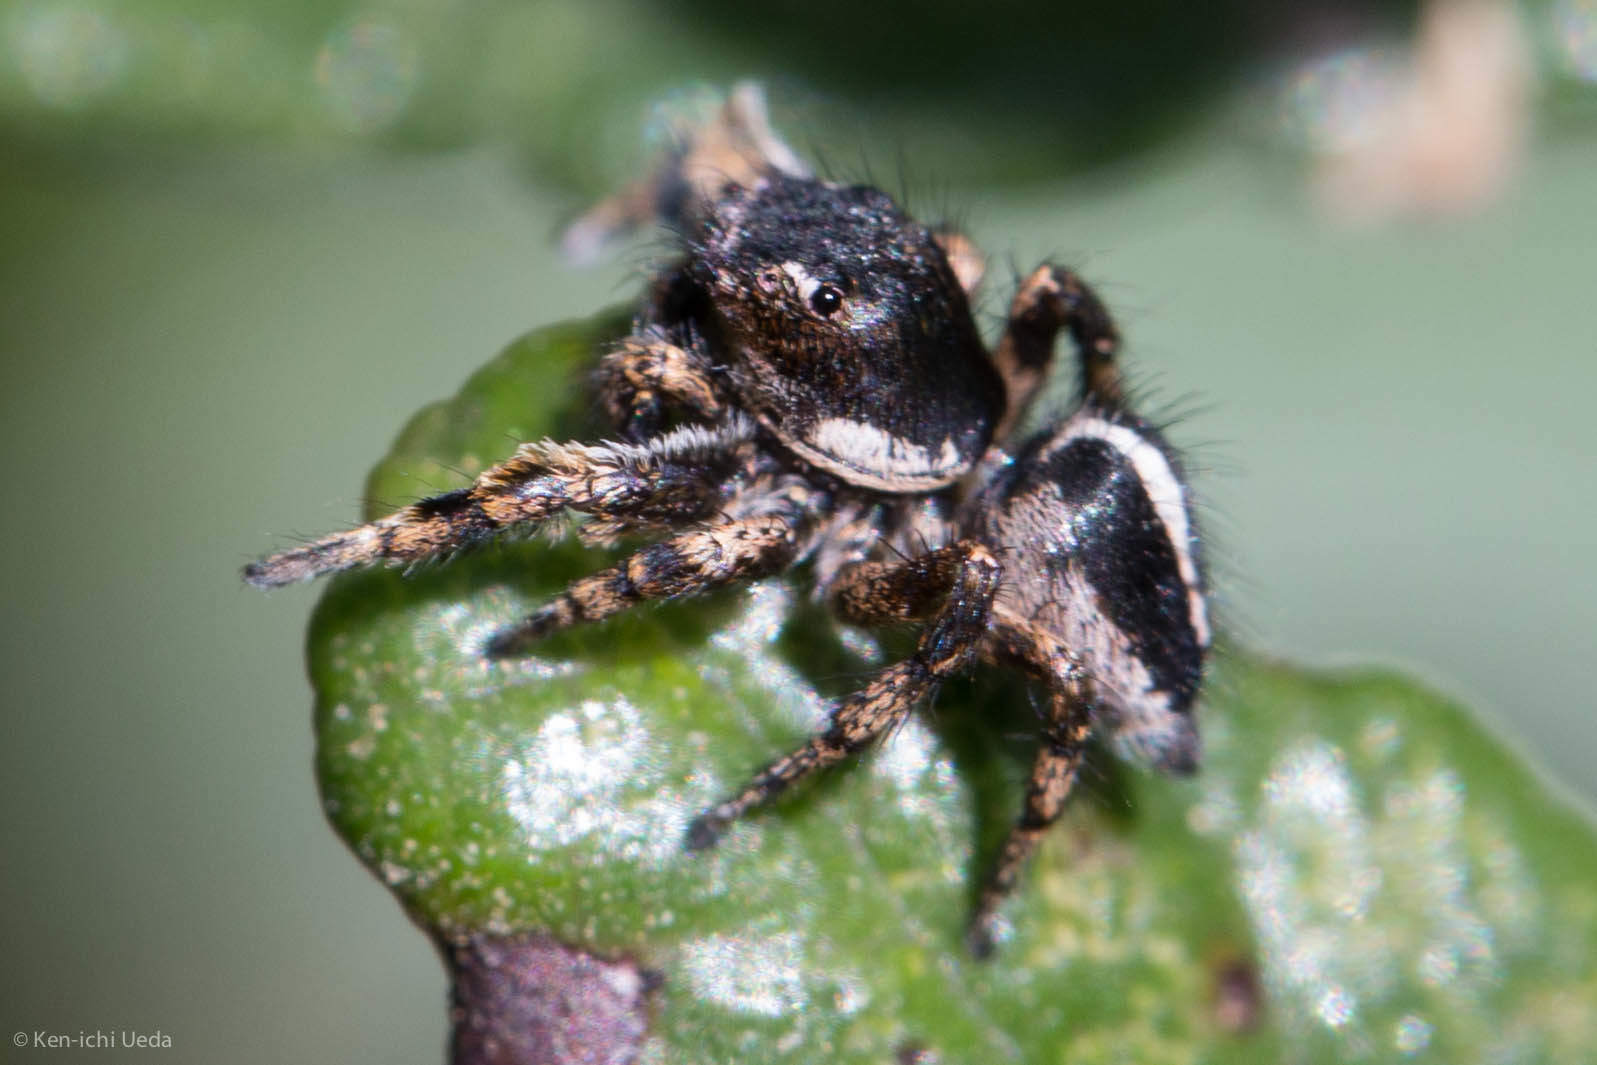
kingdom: Animalia
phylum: Arthropoda
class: Arachnida
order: Araneae
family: Salticidae
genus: Habronattus
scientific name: Habronattus peckhami
